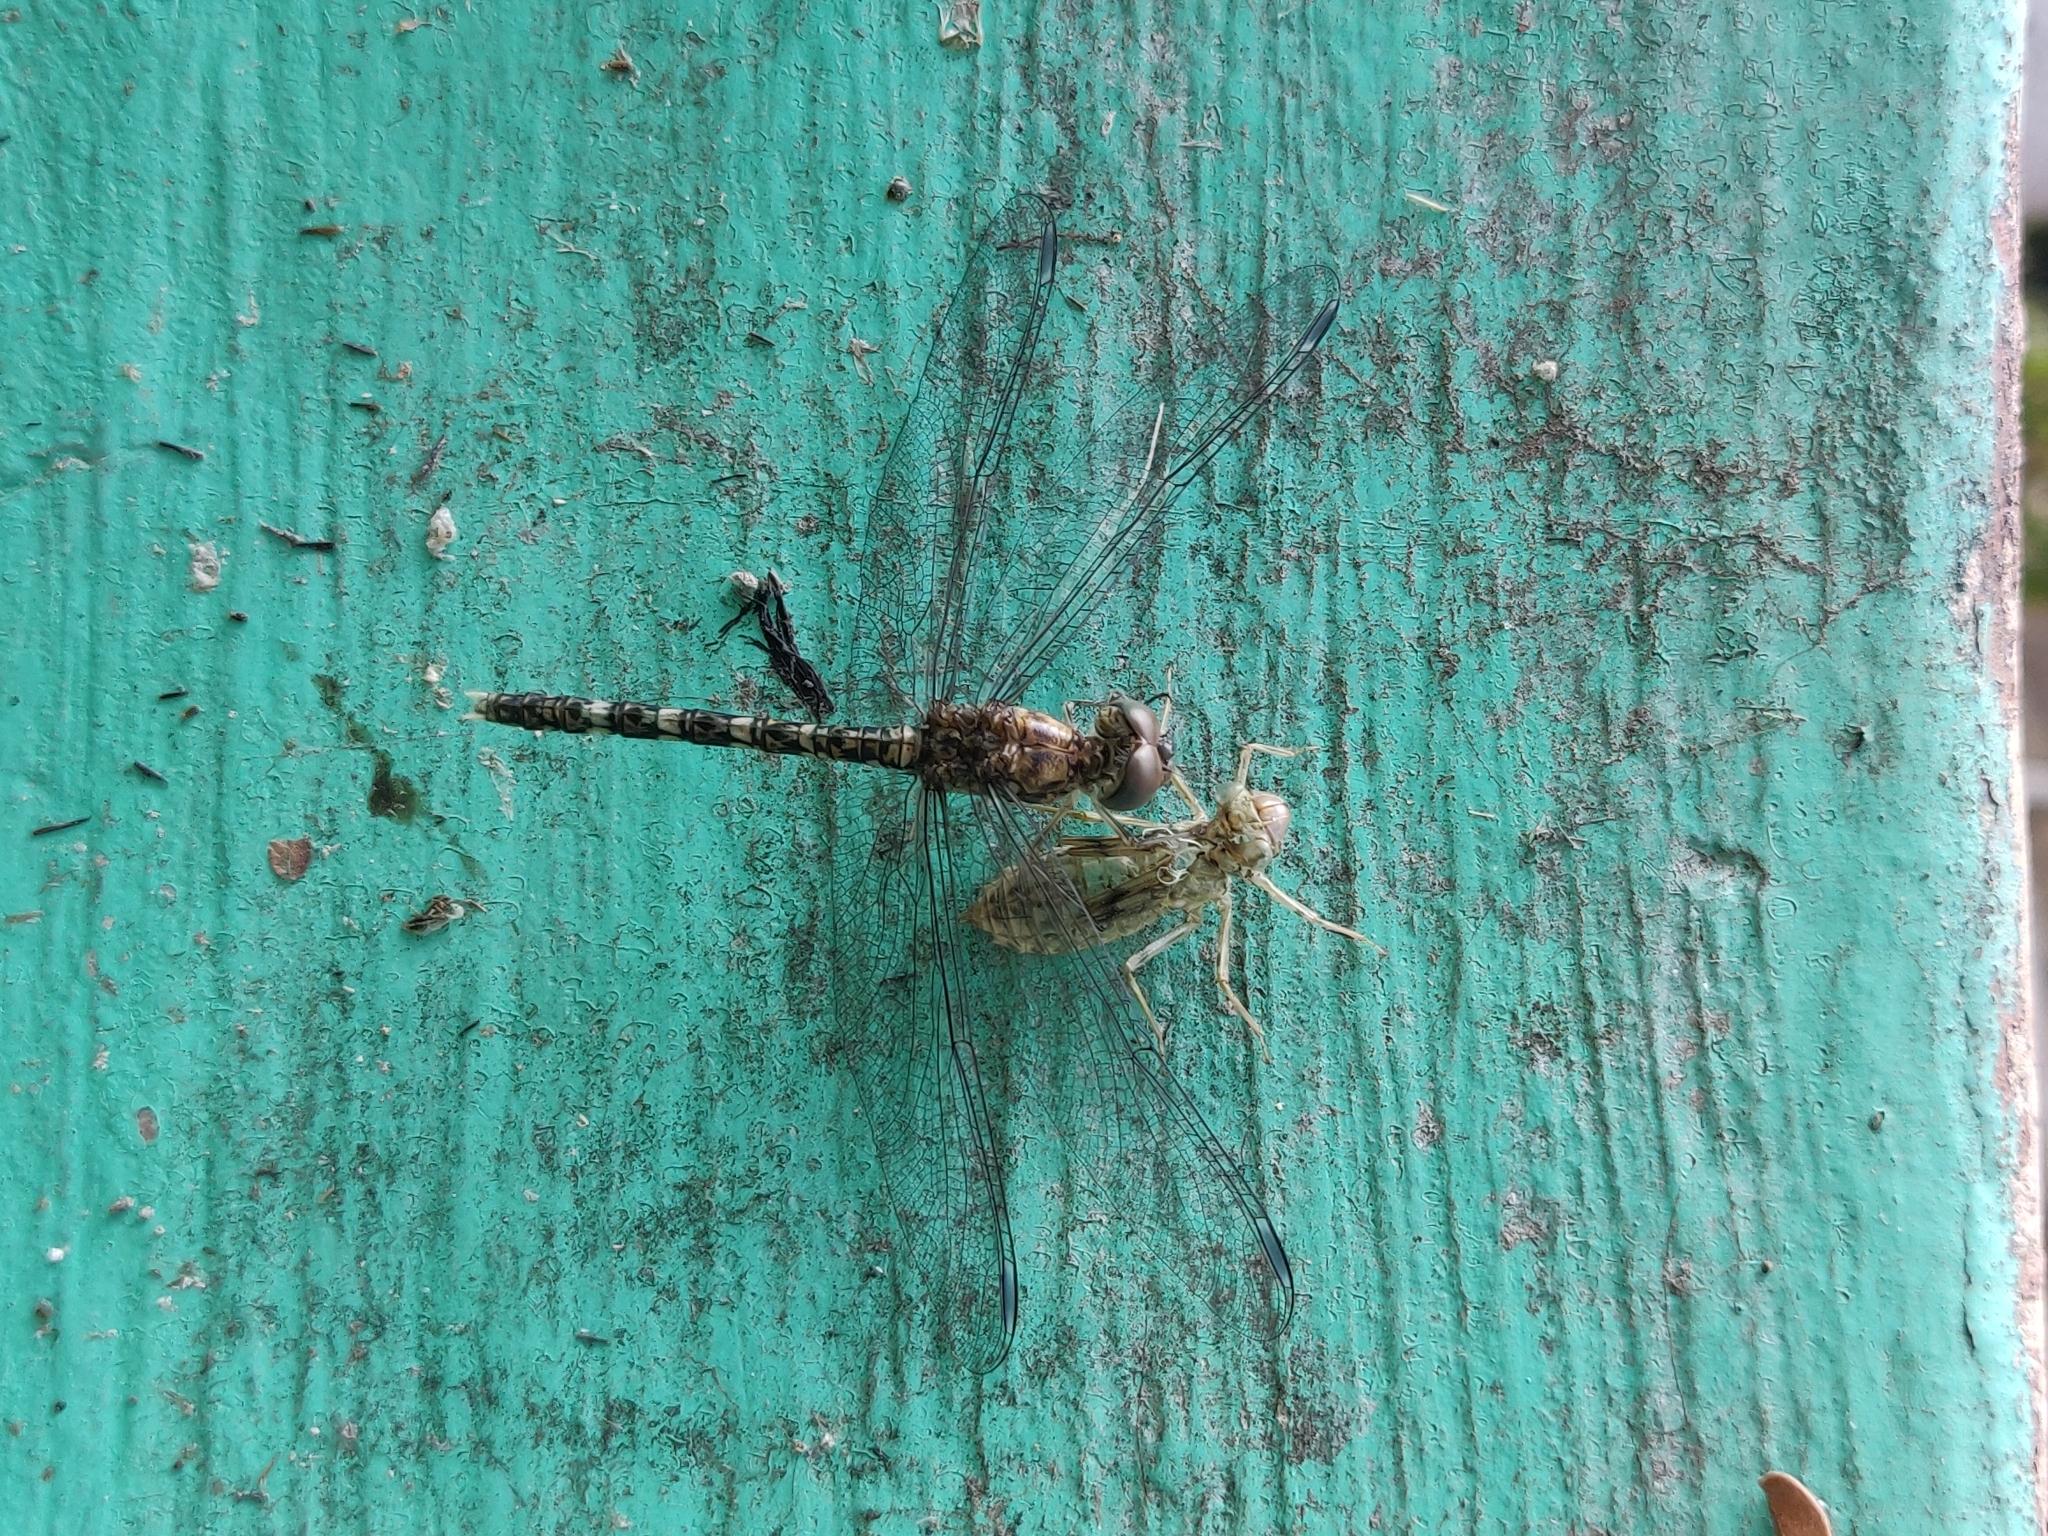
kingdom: Animalia
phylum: Arthropoda
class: Insecta
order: Odonata
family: Libellulidae
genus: Bradinopyga
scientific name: Bradinopyga geminata
